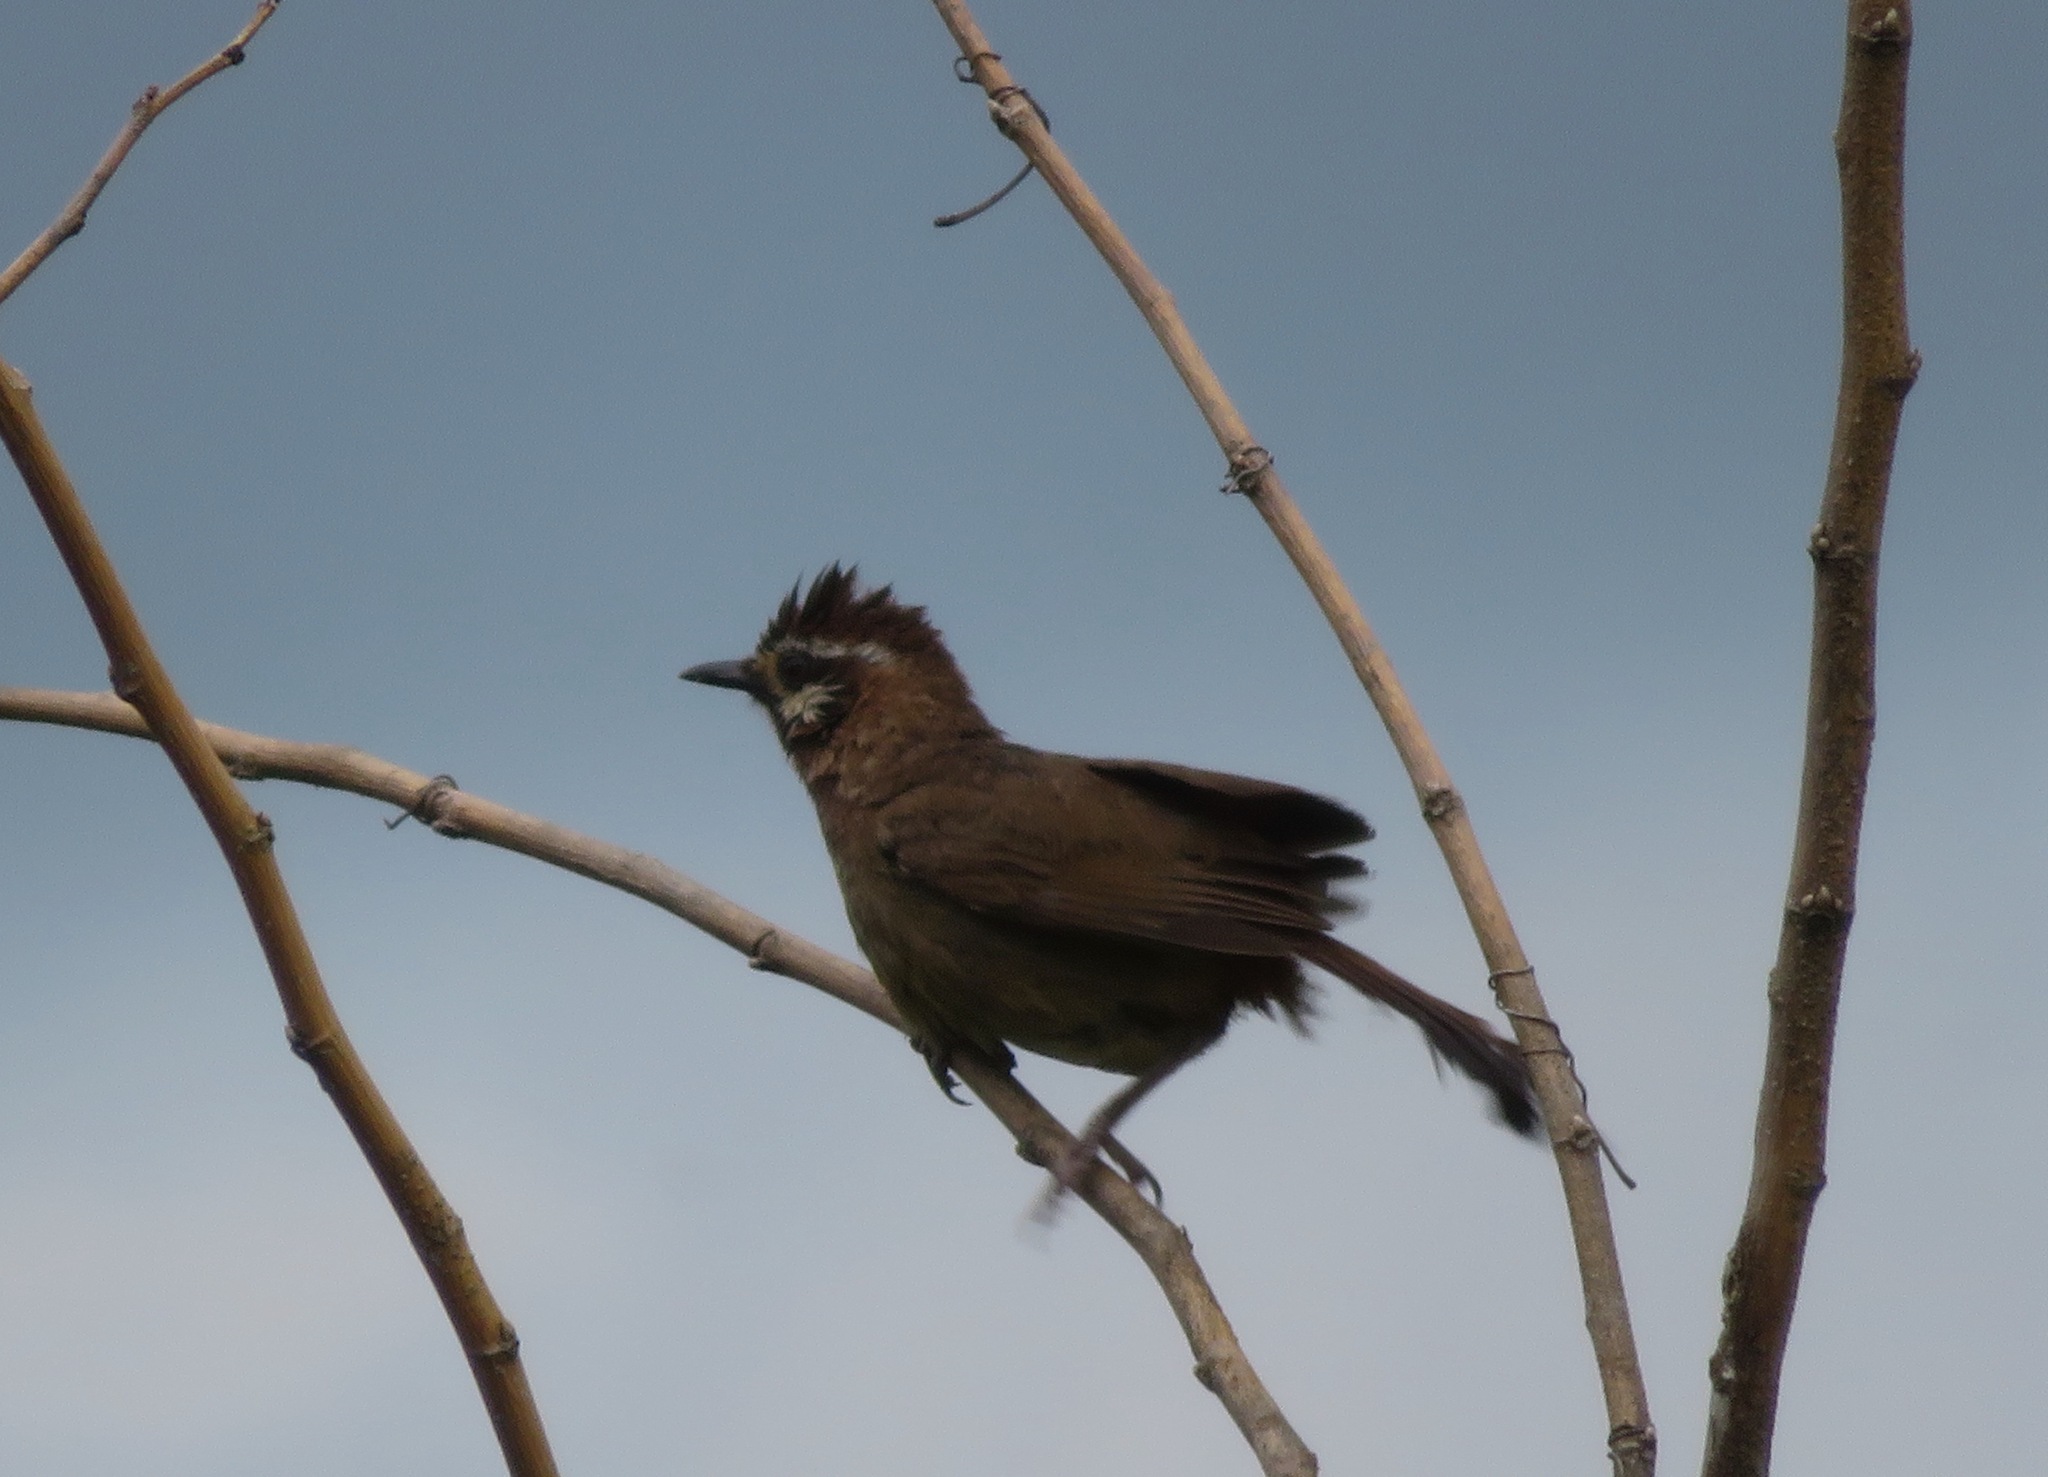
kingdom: Animalia
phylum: Chordata
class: Aves
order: Passeriformes
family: Leiothrichidae
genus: Pterorhinus
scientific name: Pterorhinus sannio
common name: White-browed laughingthrush
